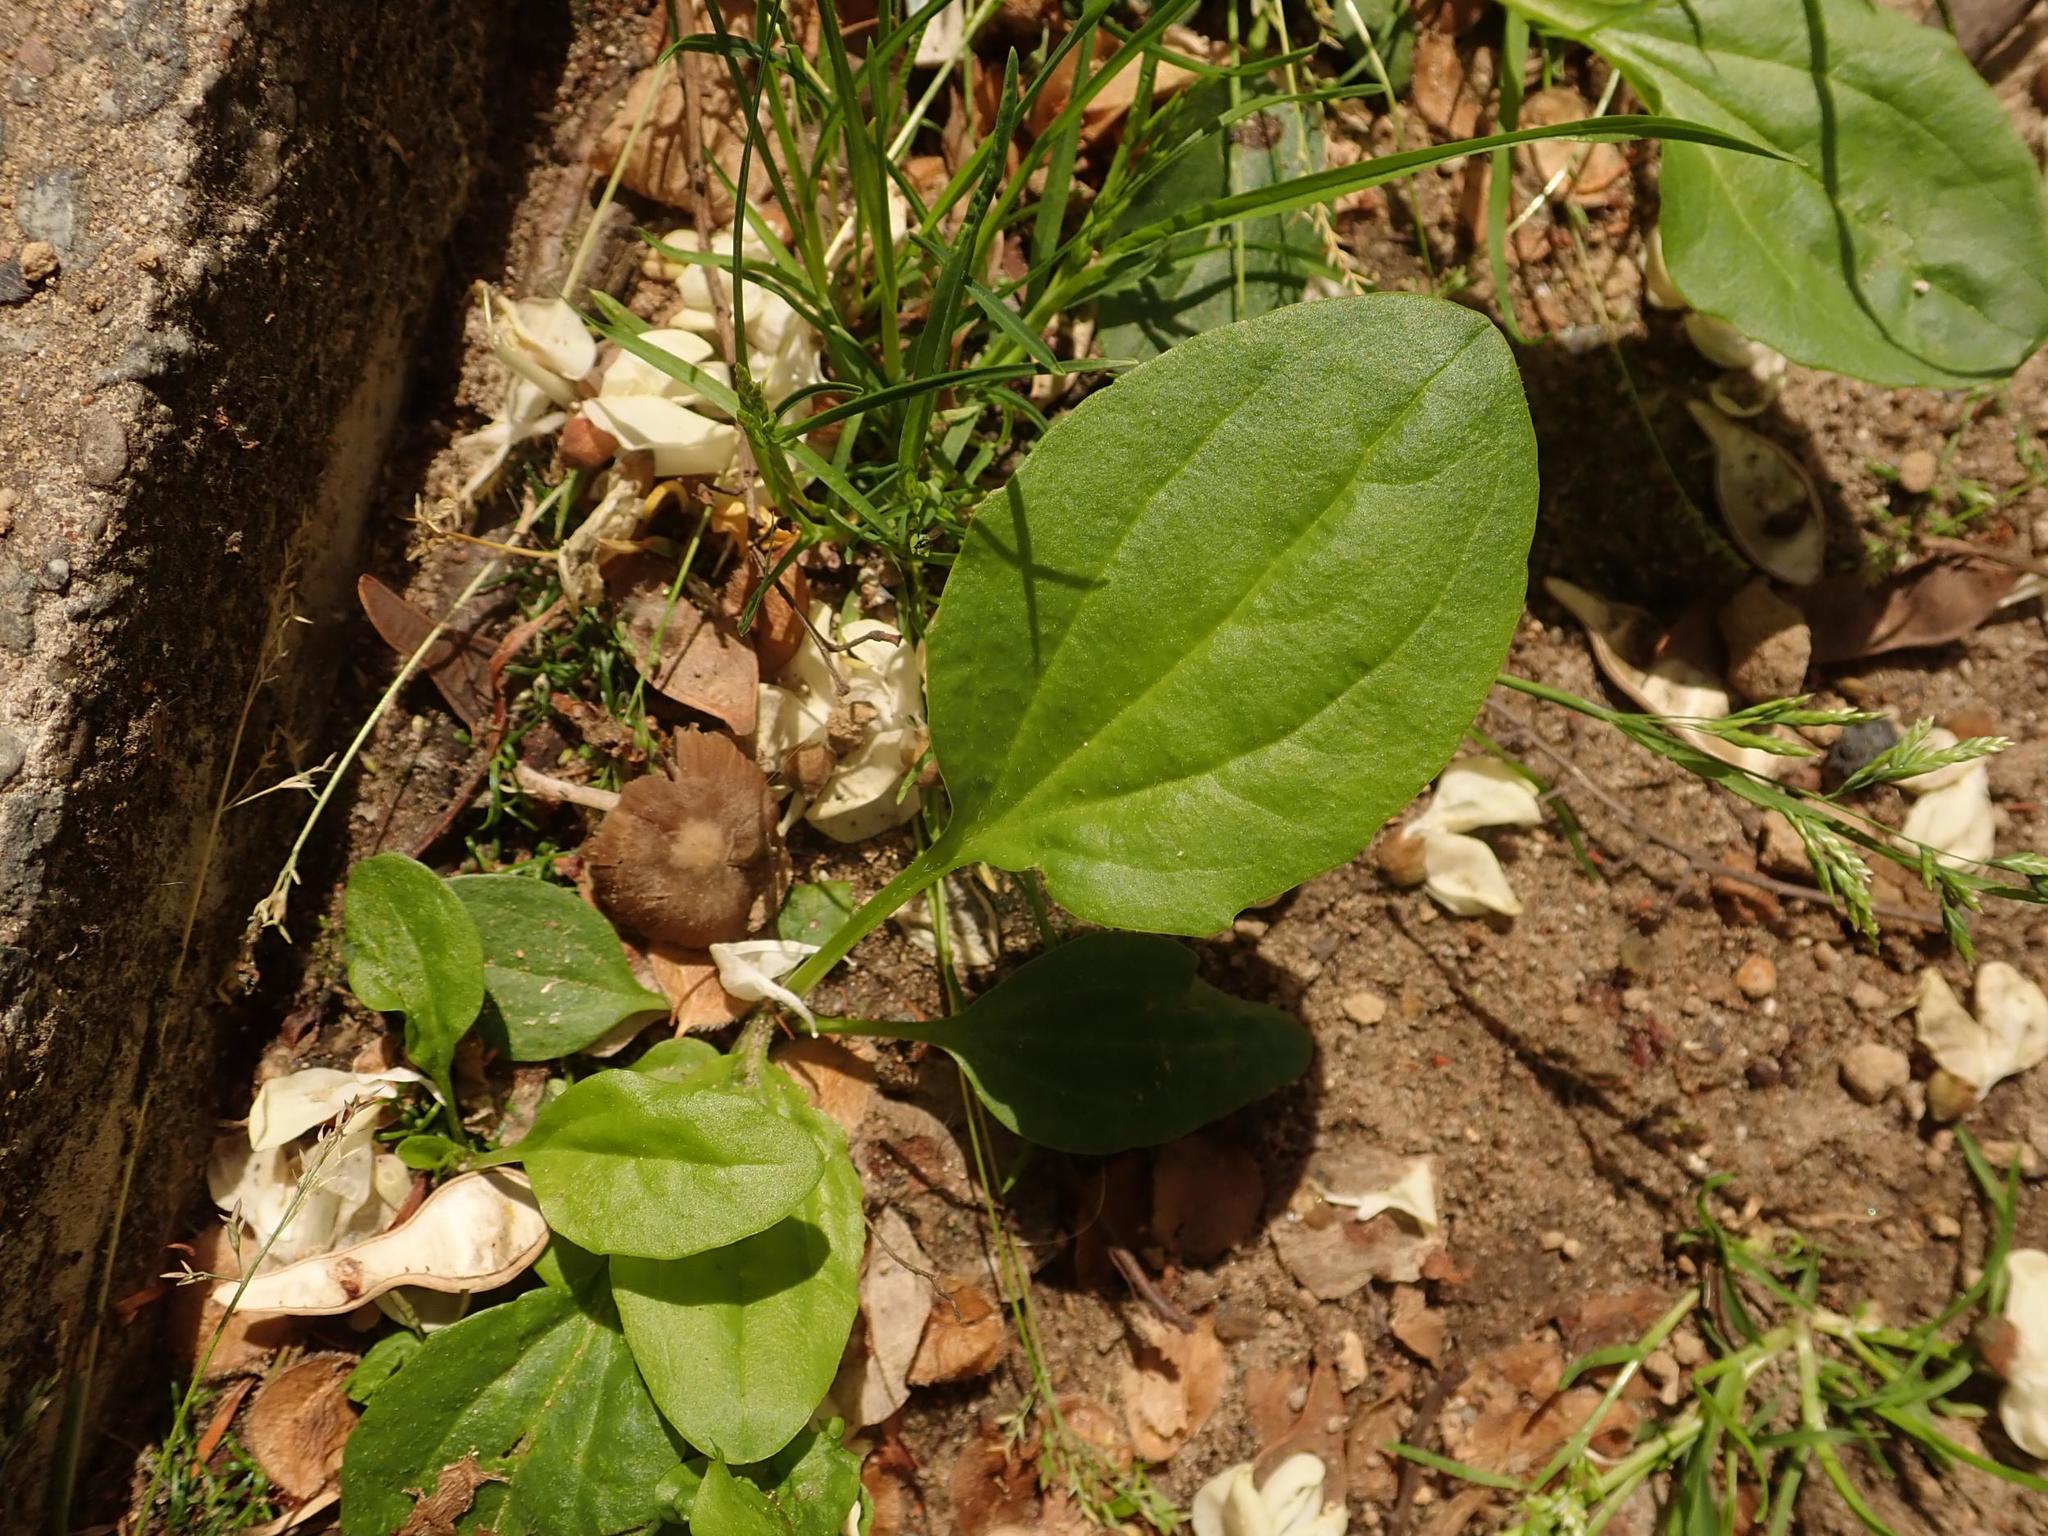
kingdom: Plantae
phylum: Tracheophyta
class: Magnoliopsida
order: Lamiales
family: Plantaginaceae
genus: Plantago
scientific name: Plantago major
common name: Common plantain
